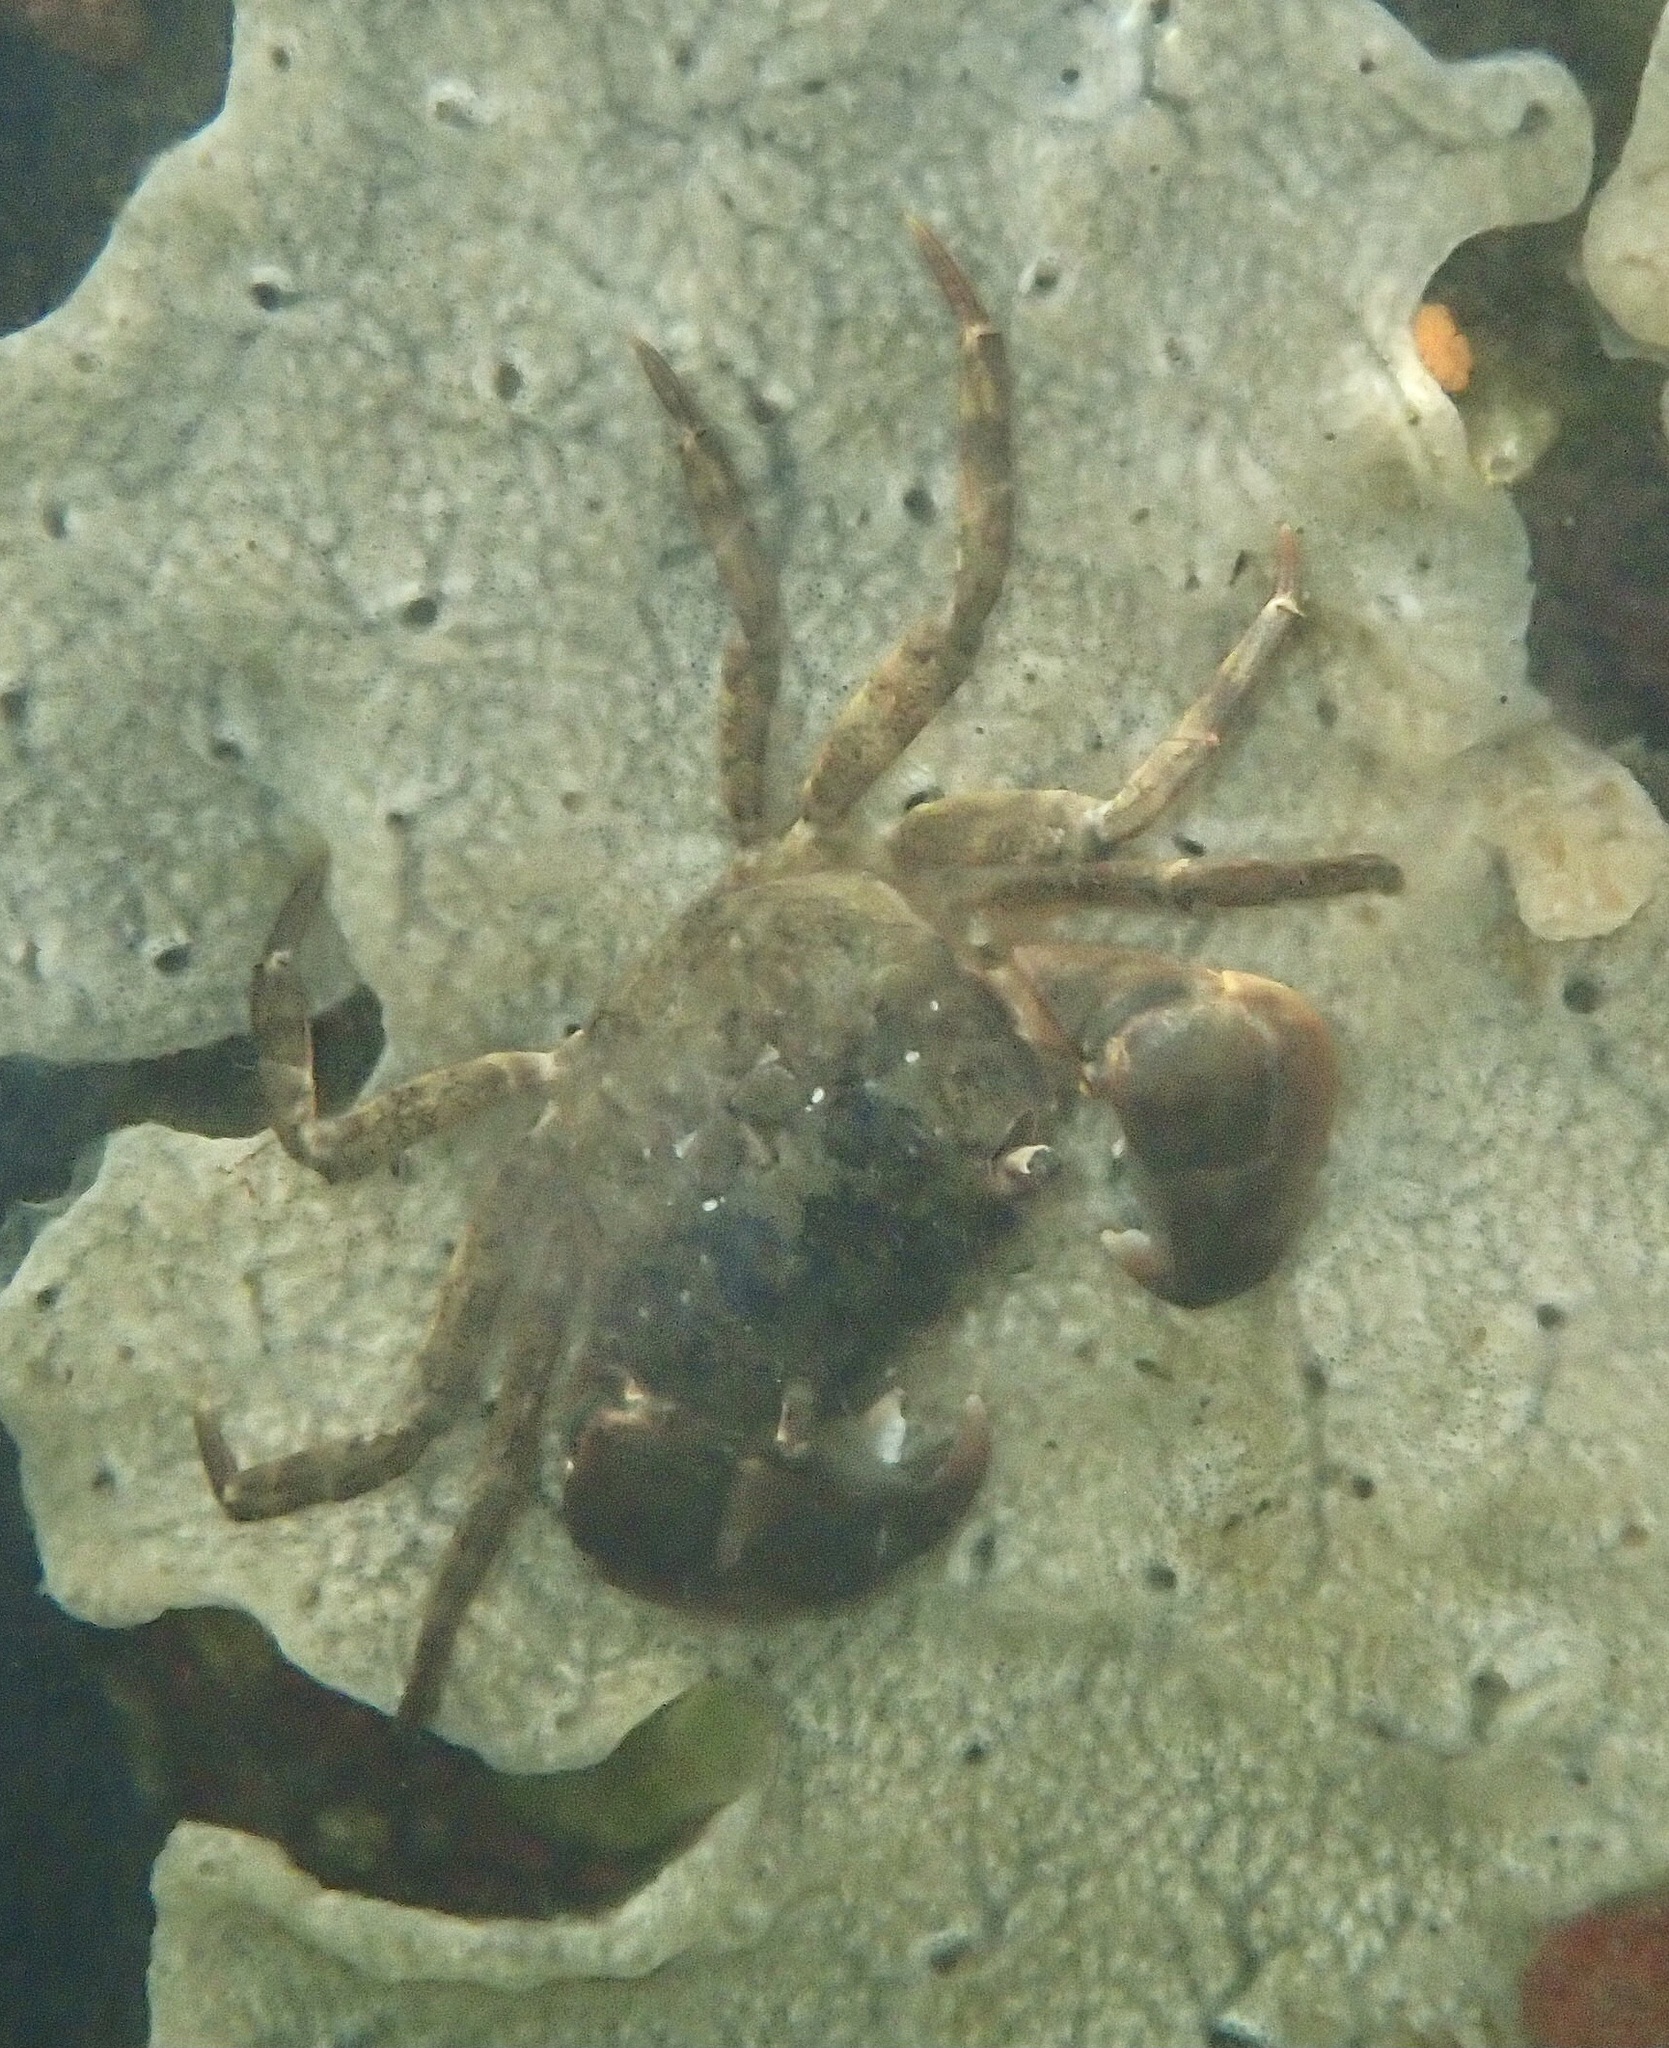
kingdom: Animalia
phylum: Arthropoda
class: Malacostraca
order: Decapoda
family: Varunidae
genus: Hemigrapsus
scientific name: Hemigrapsus takanoi
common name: Asian brush crab
